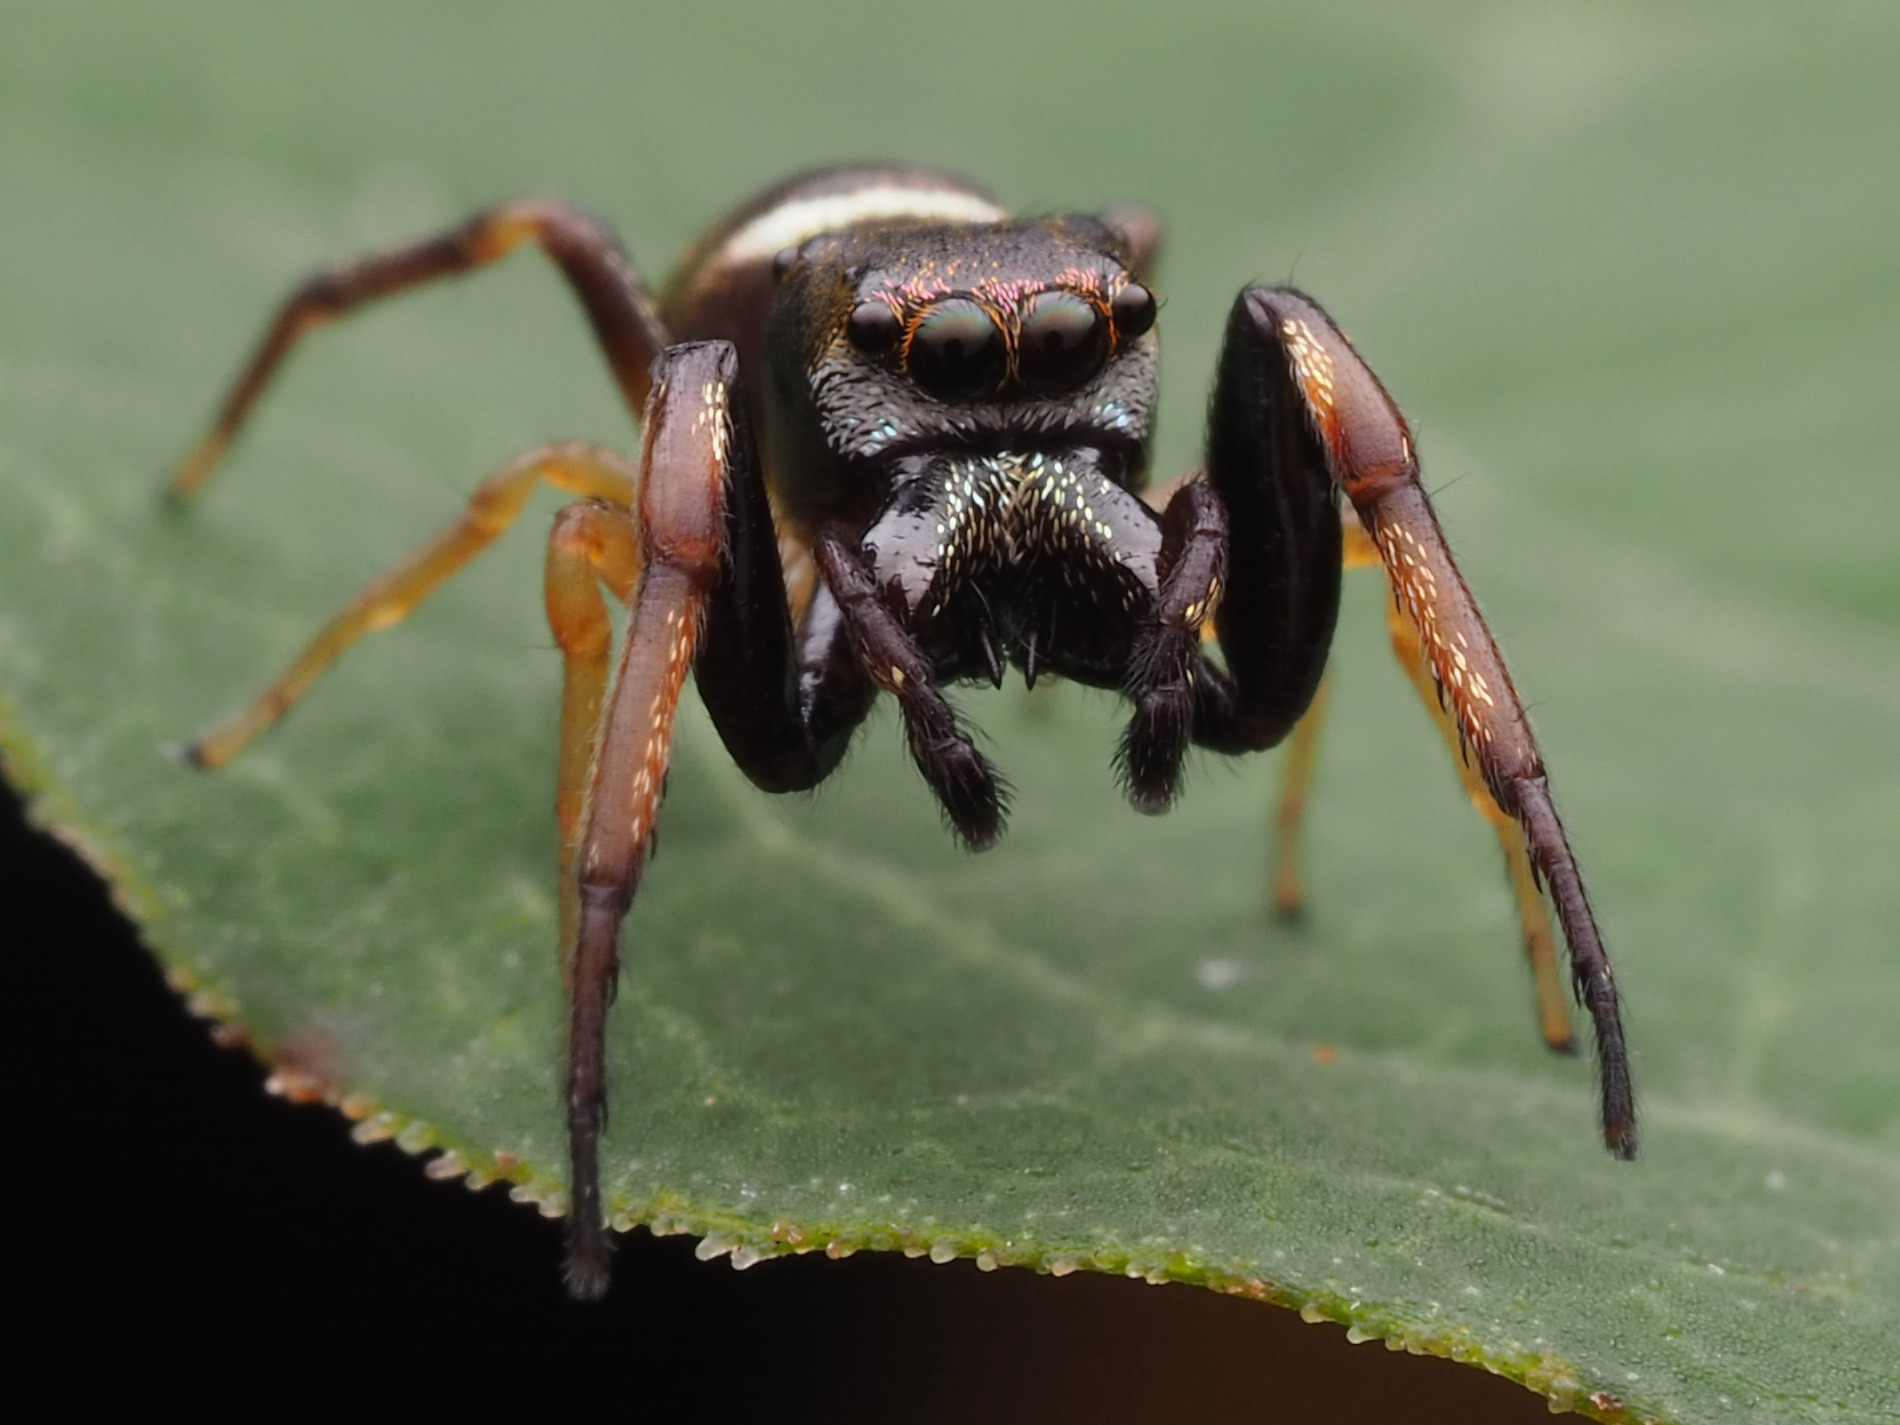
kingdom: Animalia
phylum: Arthropoda
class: Arachnida
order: Araneae
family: Salticidae
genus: Zygoballus
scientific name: Zygoballus rufipes
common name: Jumping spiders
